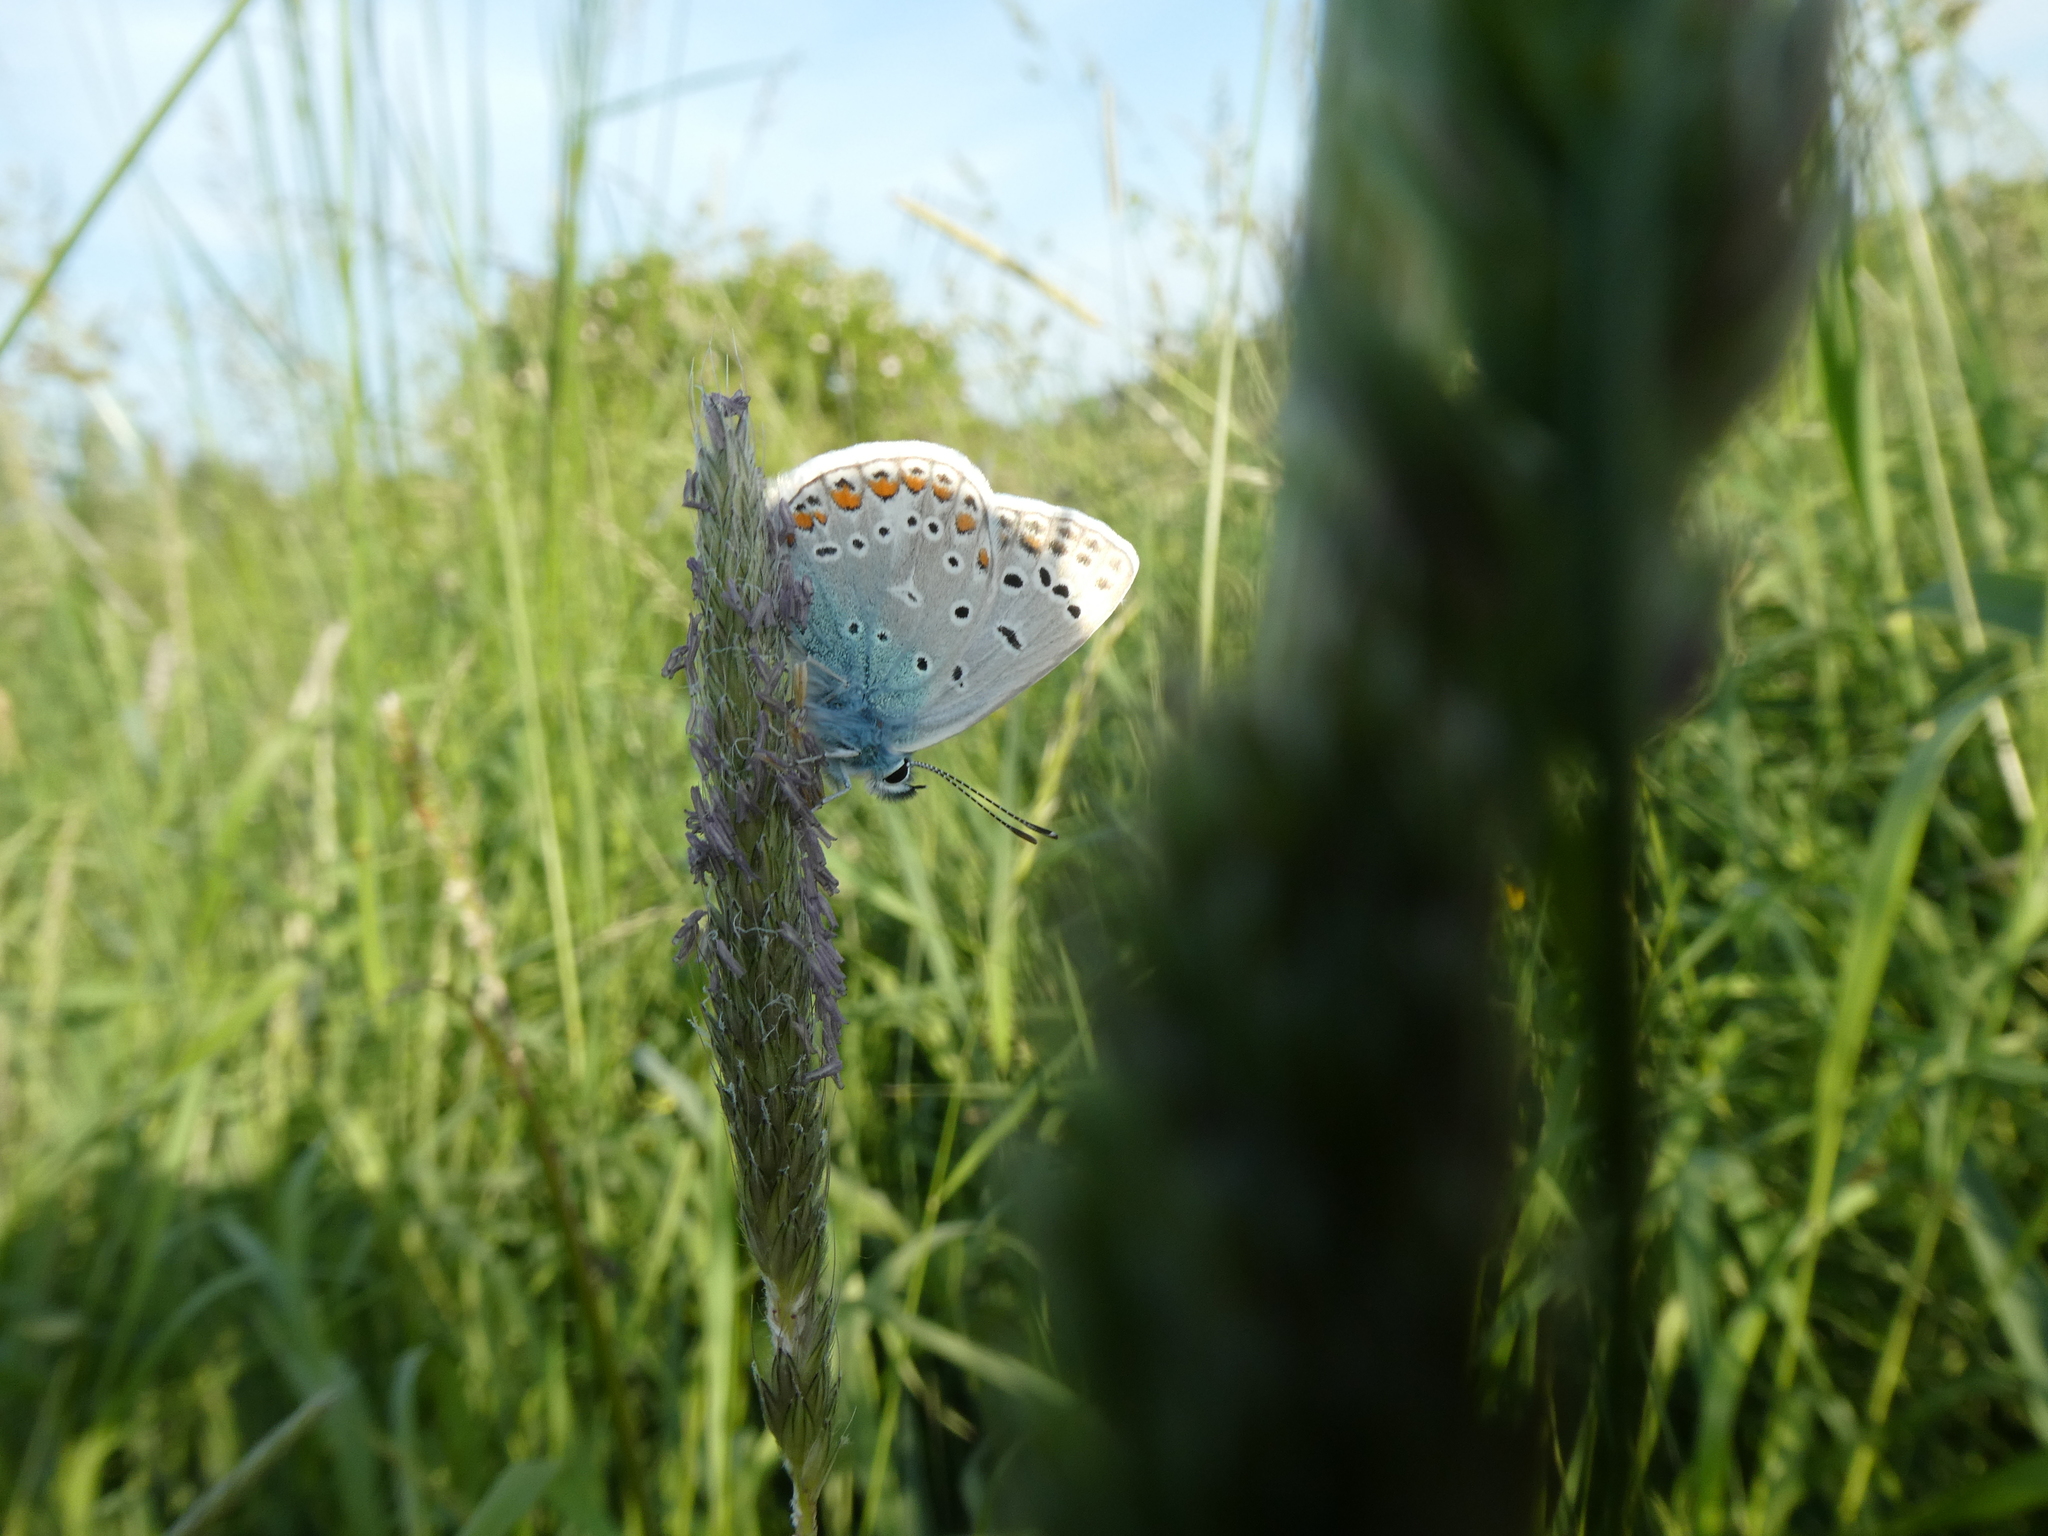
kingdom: Animalia
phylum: Arthropoda
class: Insecta
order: Lepidoptera
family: Lycaenidae
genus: Polyommatus
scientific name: Polyommatus icarus
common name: Common blue
